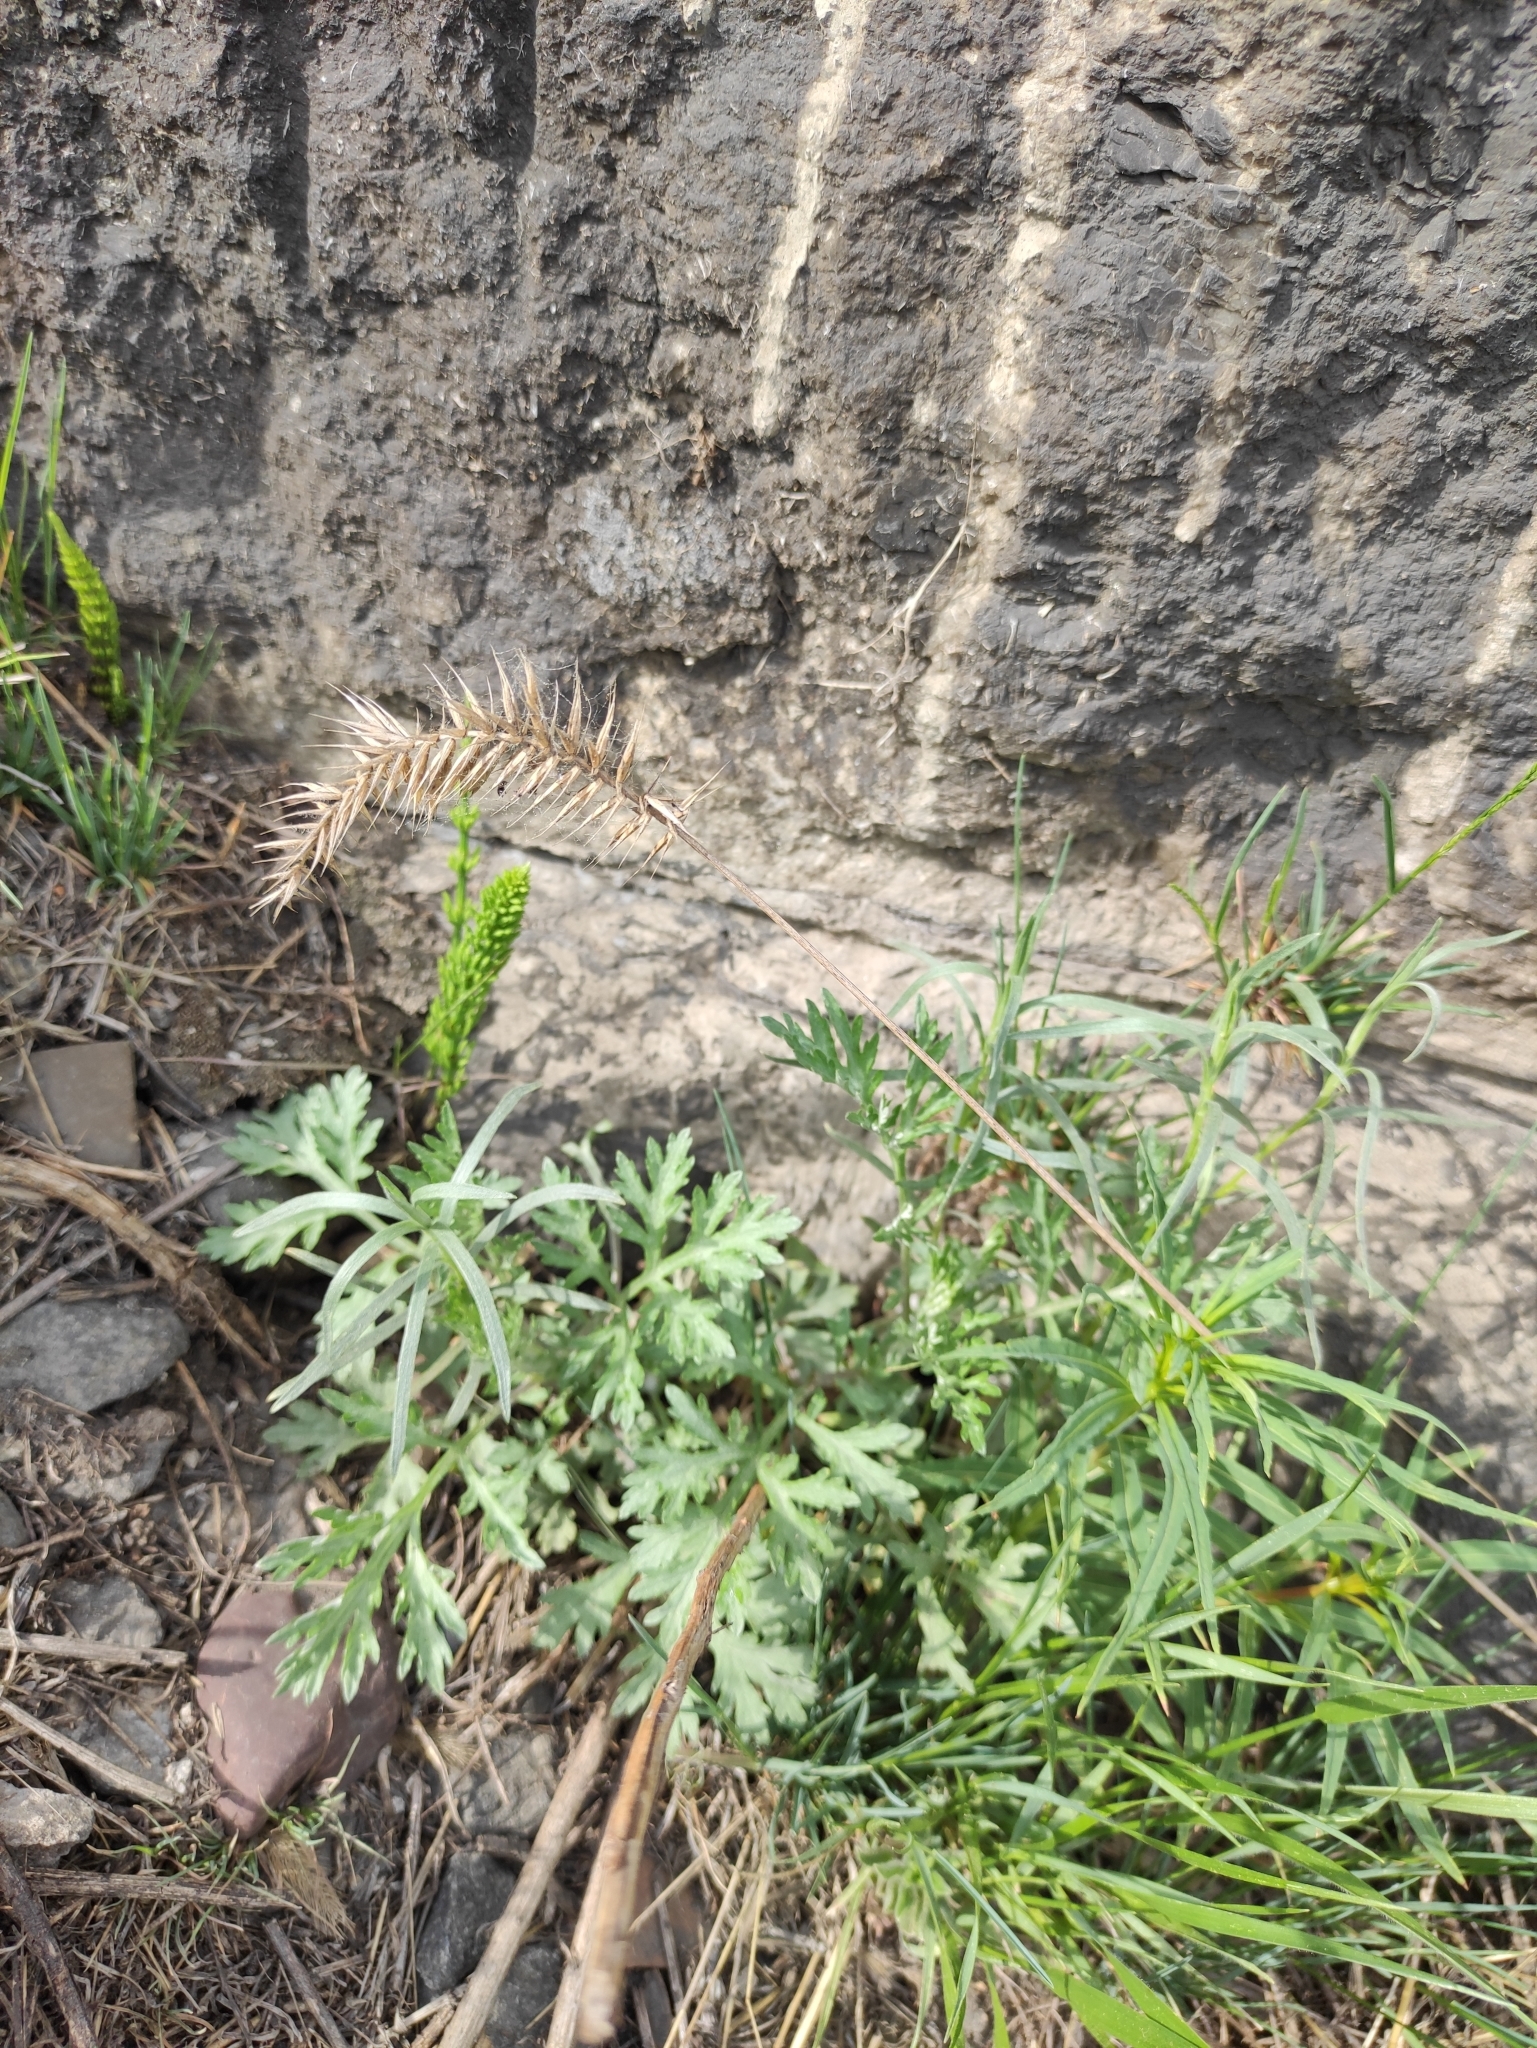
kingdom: Plantae
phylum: Tracheophyta
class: Liliopsida
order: Poales
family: Poaceae
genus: Agropyron
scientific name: Agropyron cristatum
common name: Crested wheatgrass
